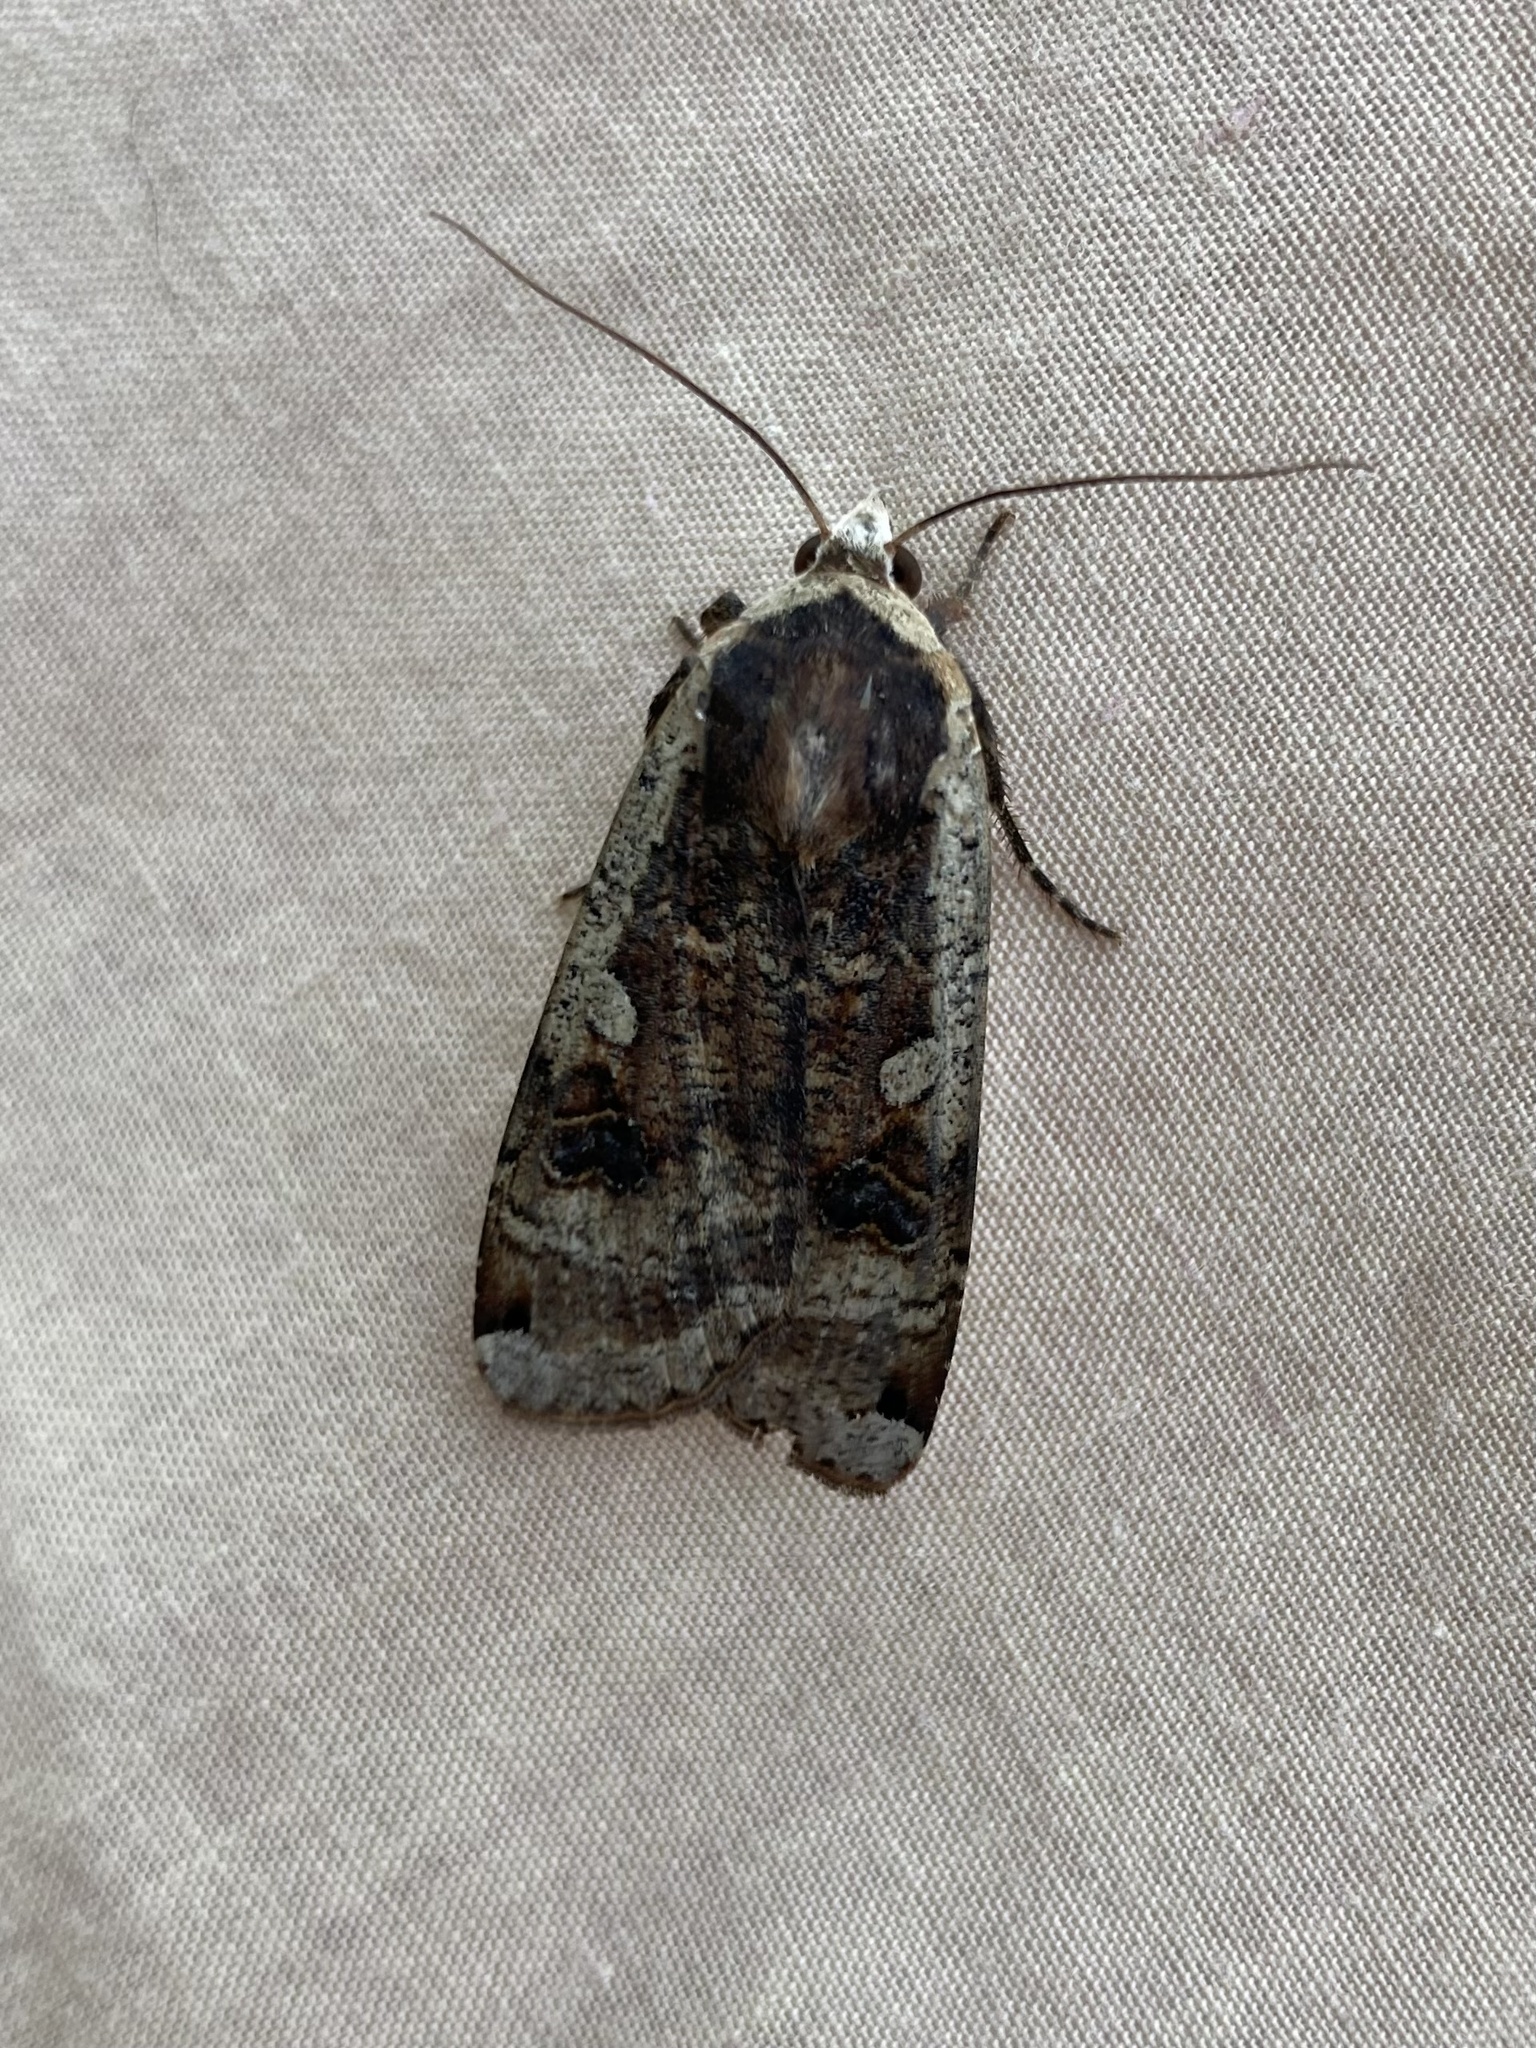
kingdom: Animalia
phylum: Arthropoda
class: Insecta
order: Lepidoptera
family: Noctuidae
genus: Noctua
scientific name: Noctua pronuba
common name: Large yellow underwing
